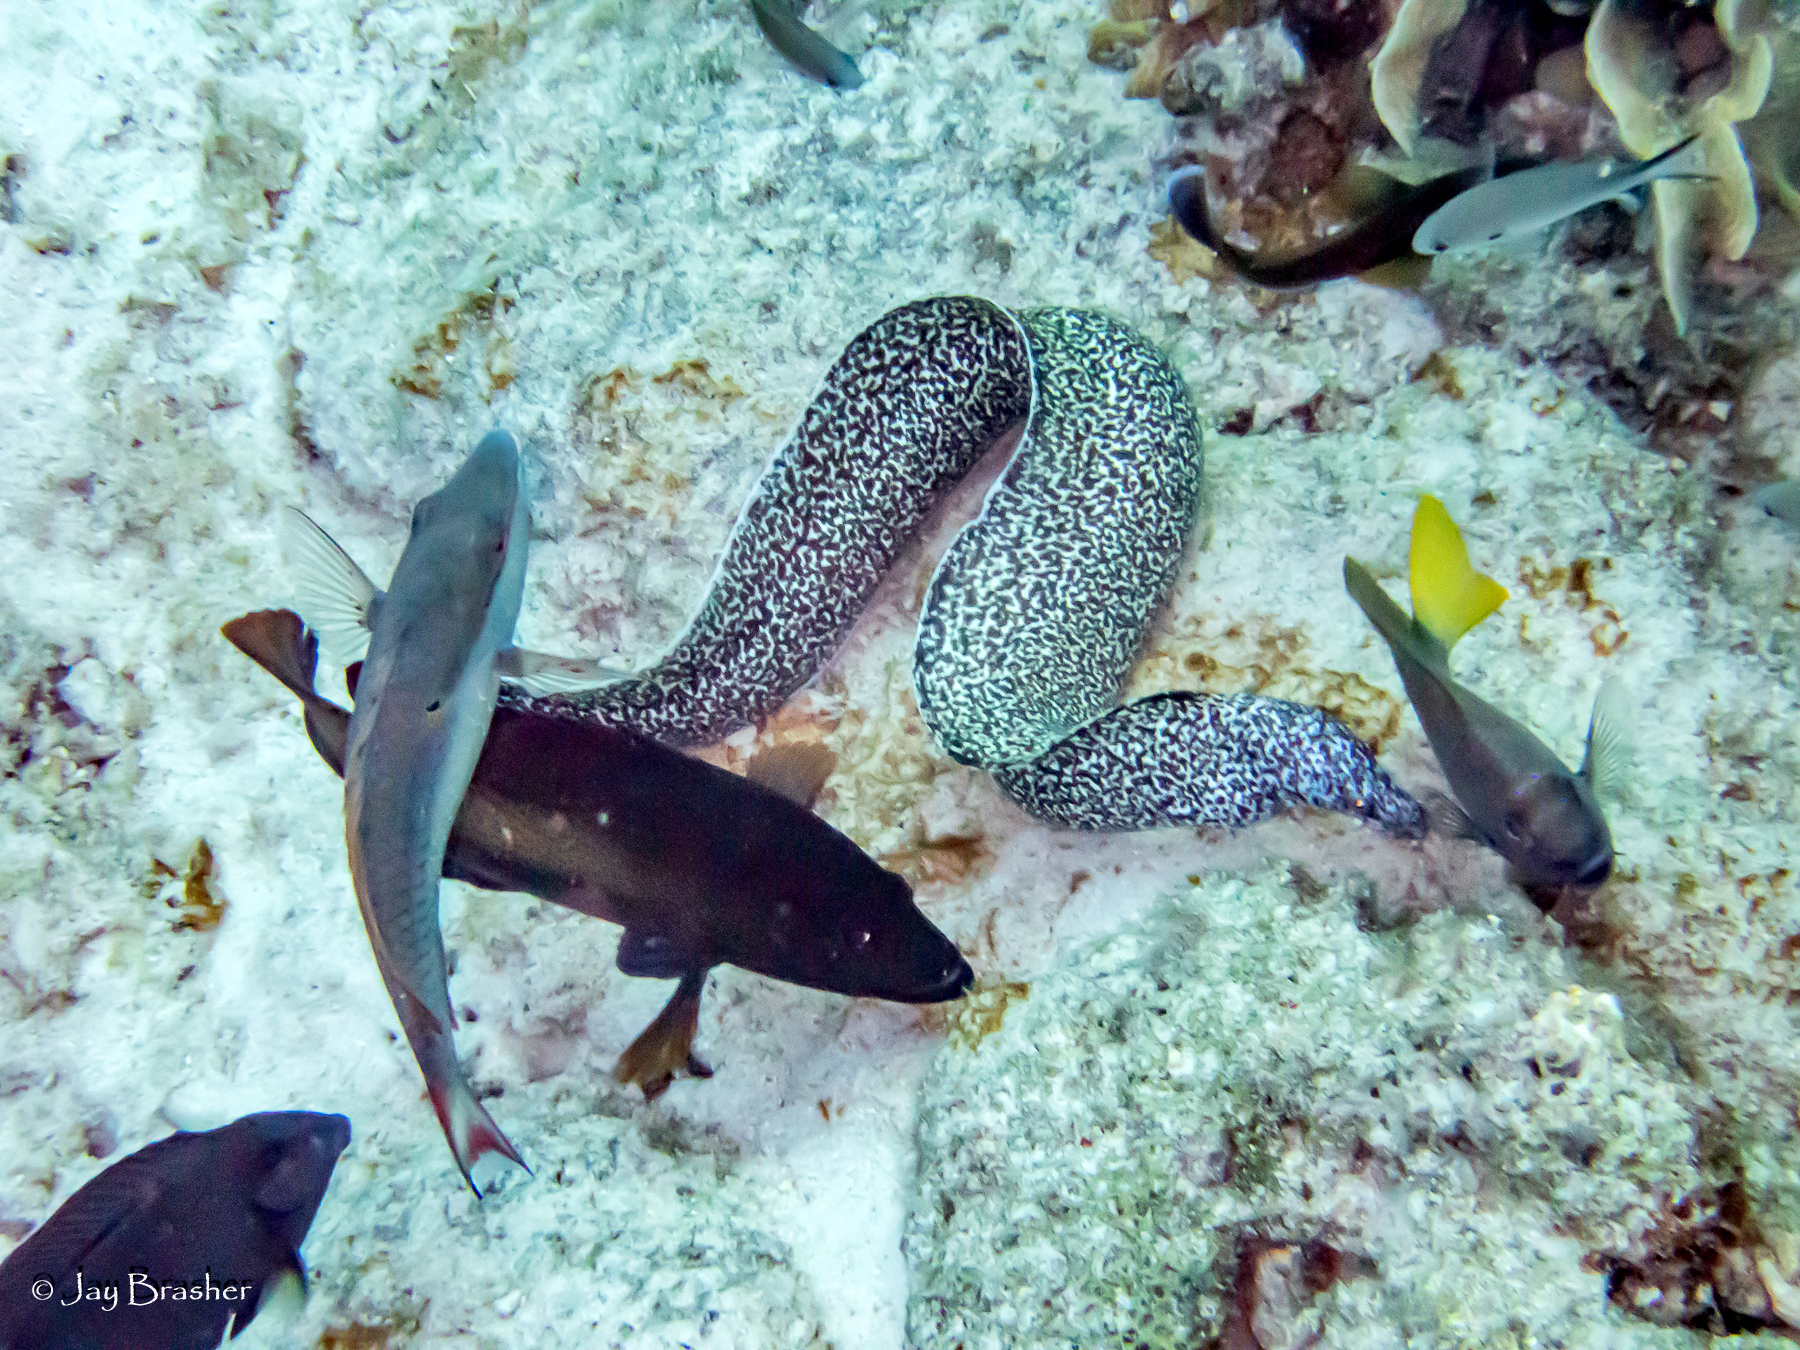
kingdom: Animalia
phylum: Chordata
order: Perciformes
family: Pomacentridae
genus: Chromis
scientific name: Chromis multilineata
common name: Brown chromis
